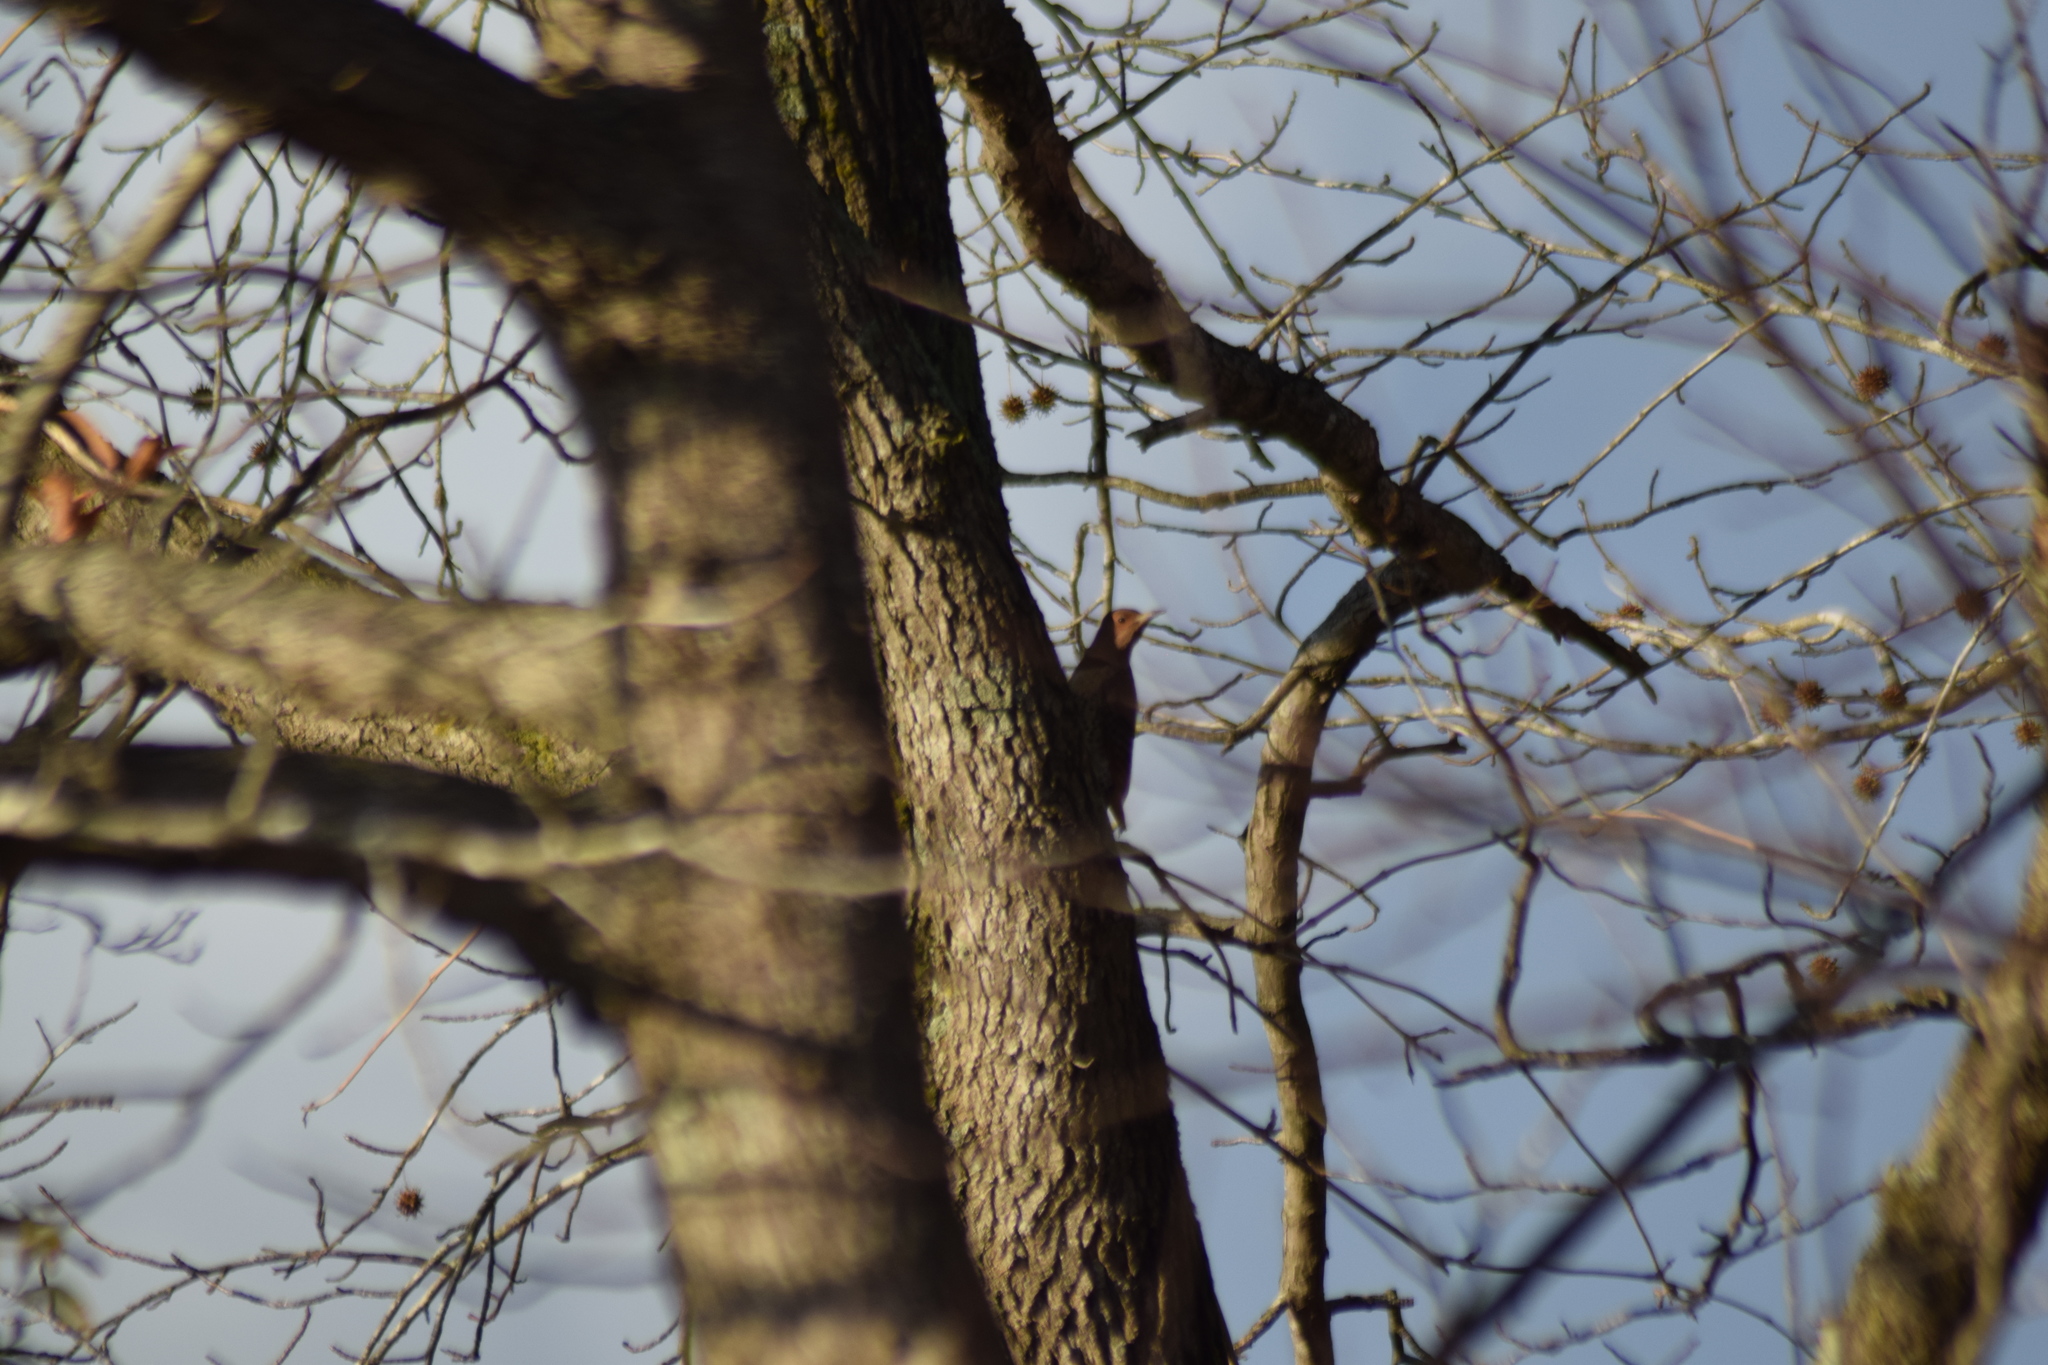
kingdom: Animalia
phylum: Chordata
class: Aves
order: Piciformes
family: Picidae
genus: Colaptes
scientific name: Colaptes auratus
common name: Northern flicker
